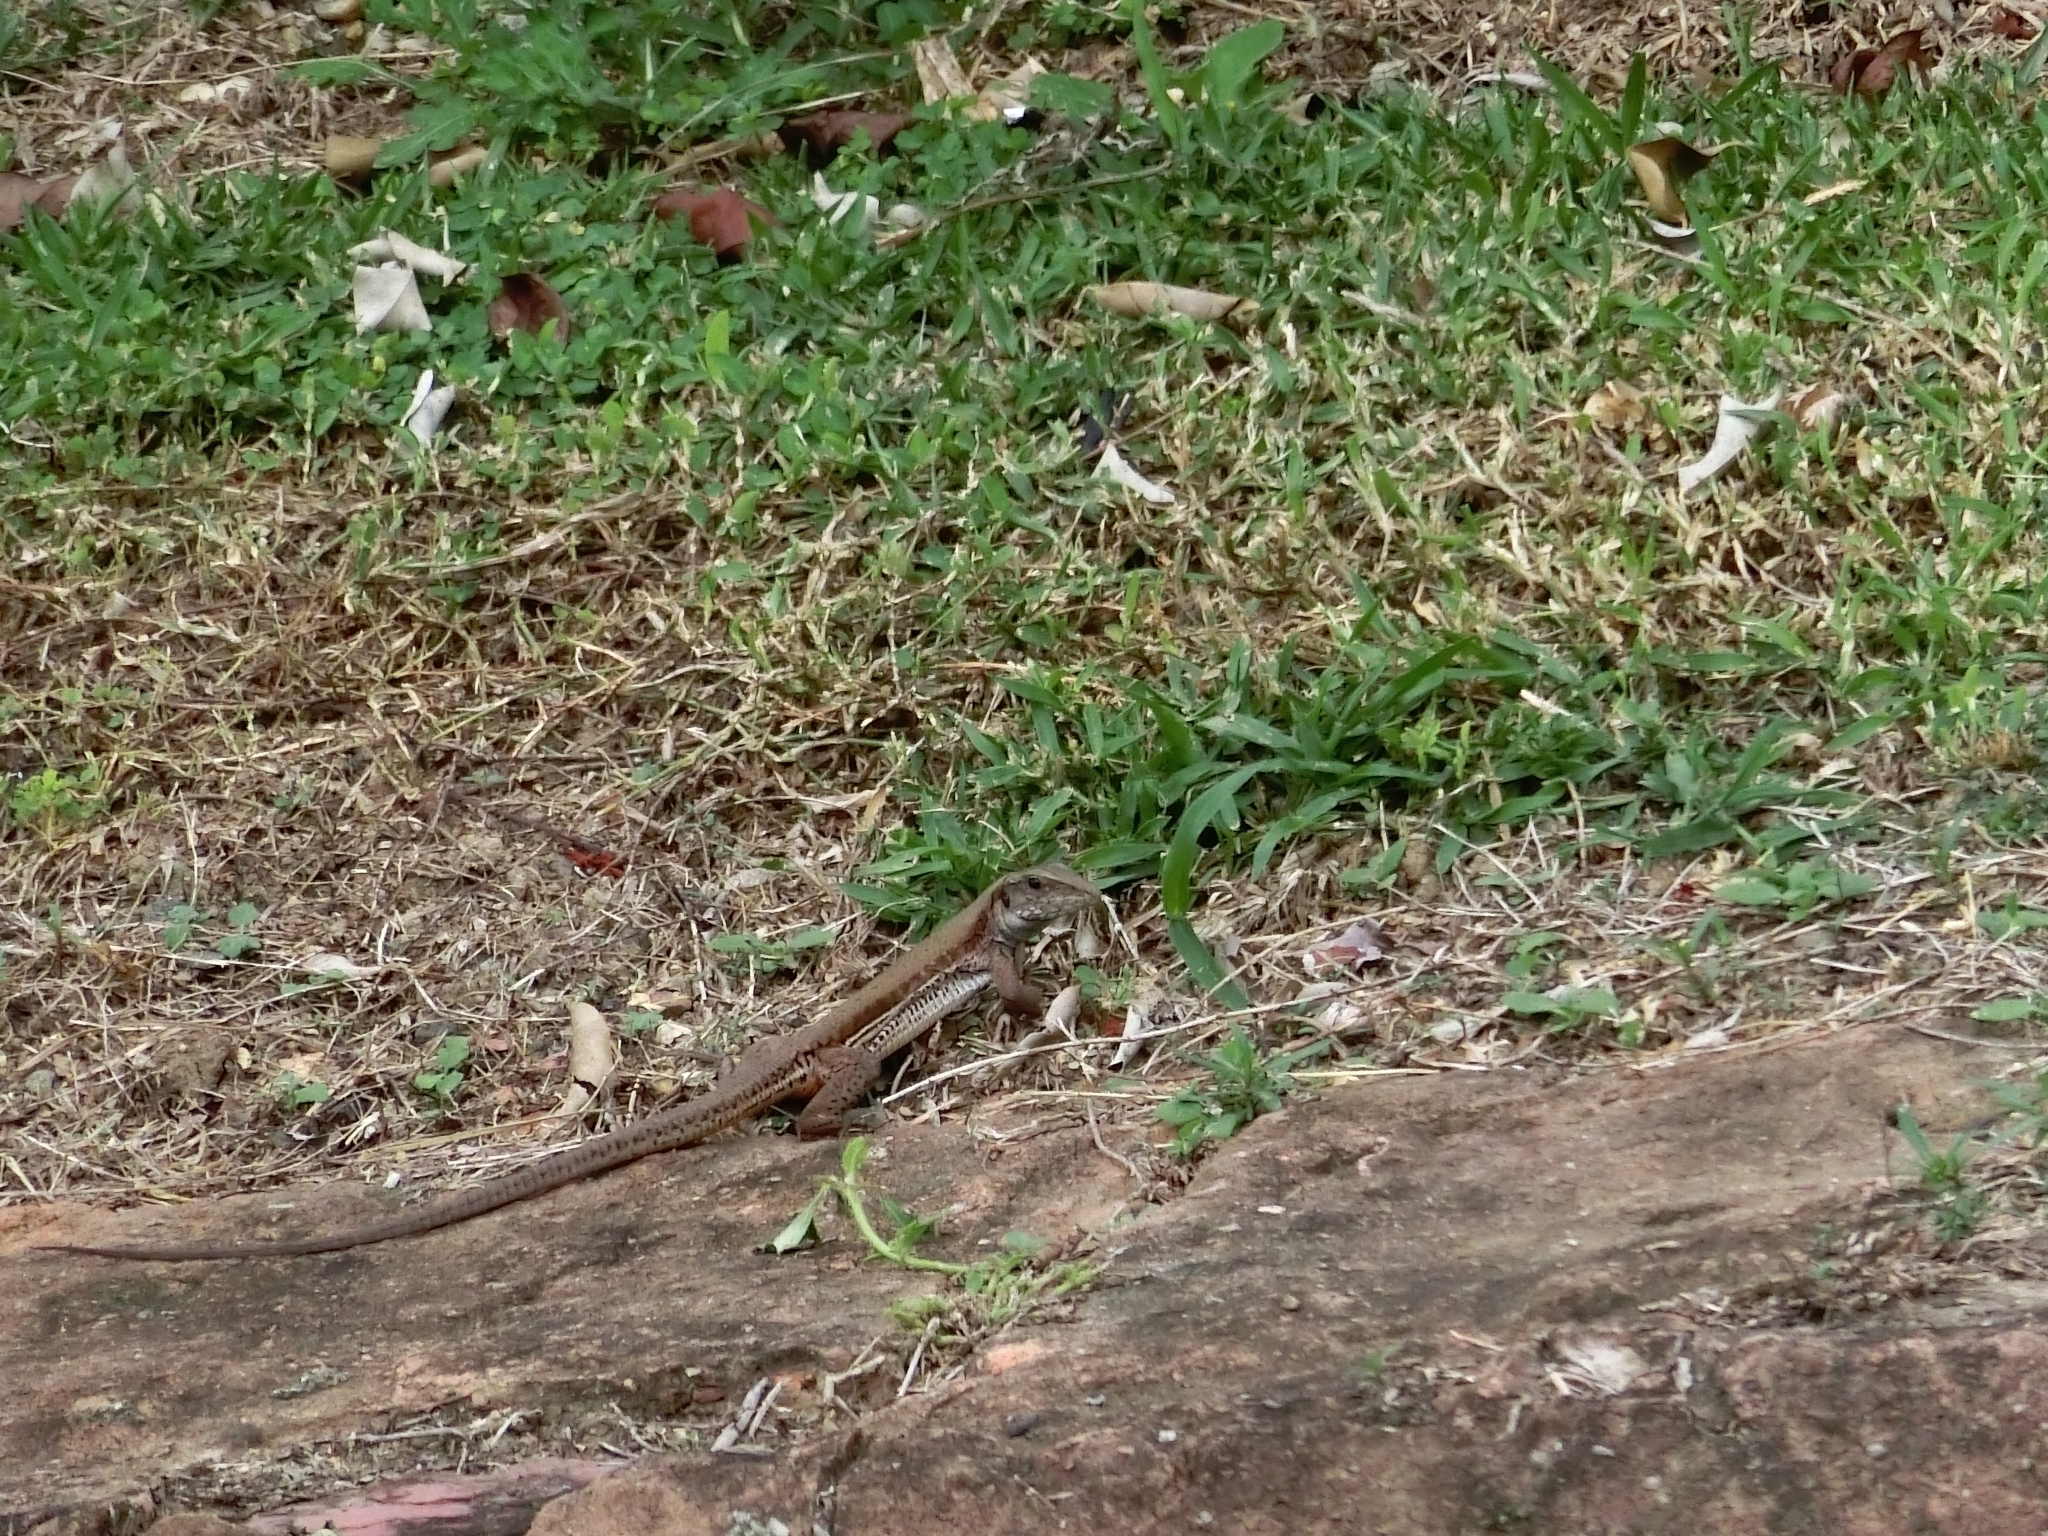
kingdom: Animalia
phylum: Chordata
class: Squamata
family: Teiidae
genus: Ameiva
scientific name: Ameiva atrigularis
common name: Venezuelan ameiva
